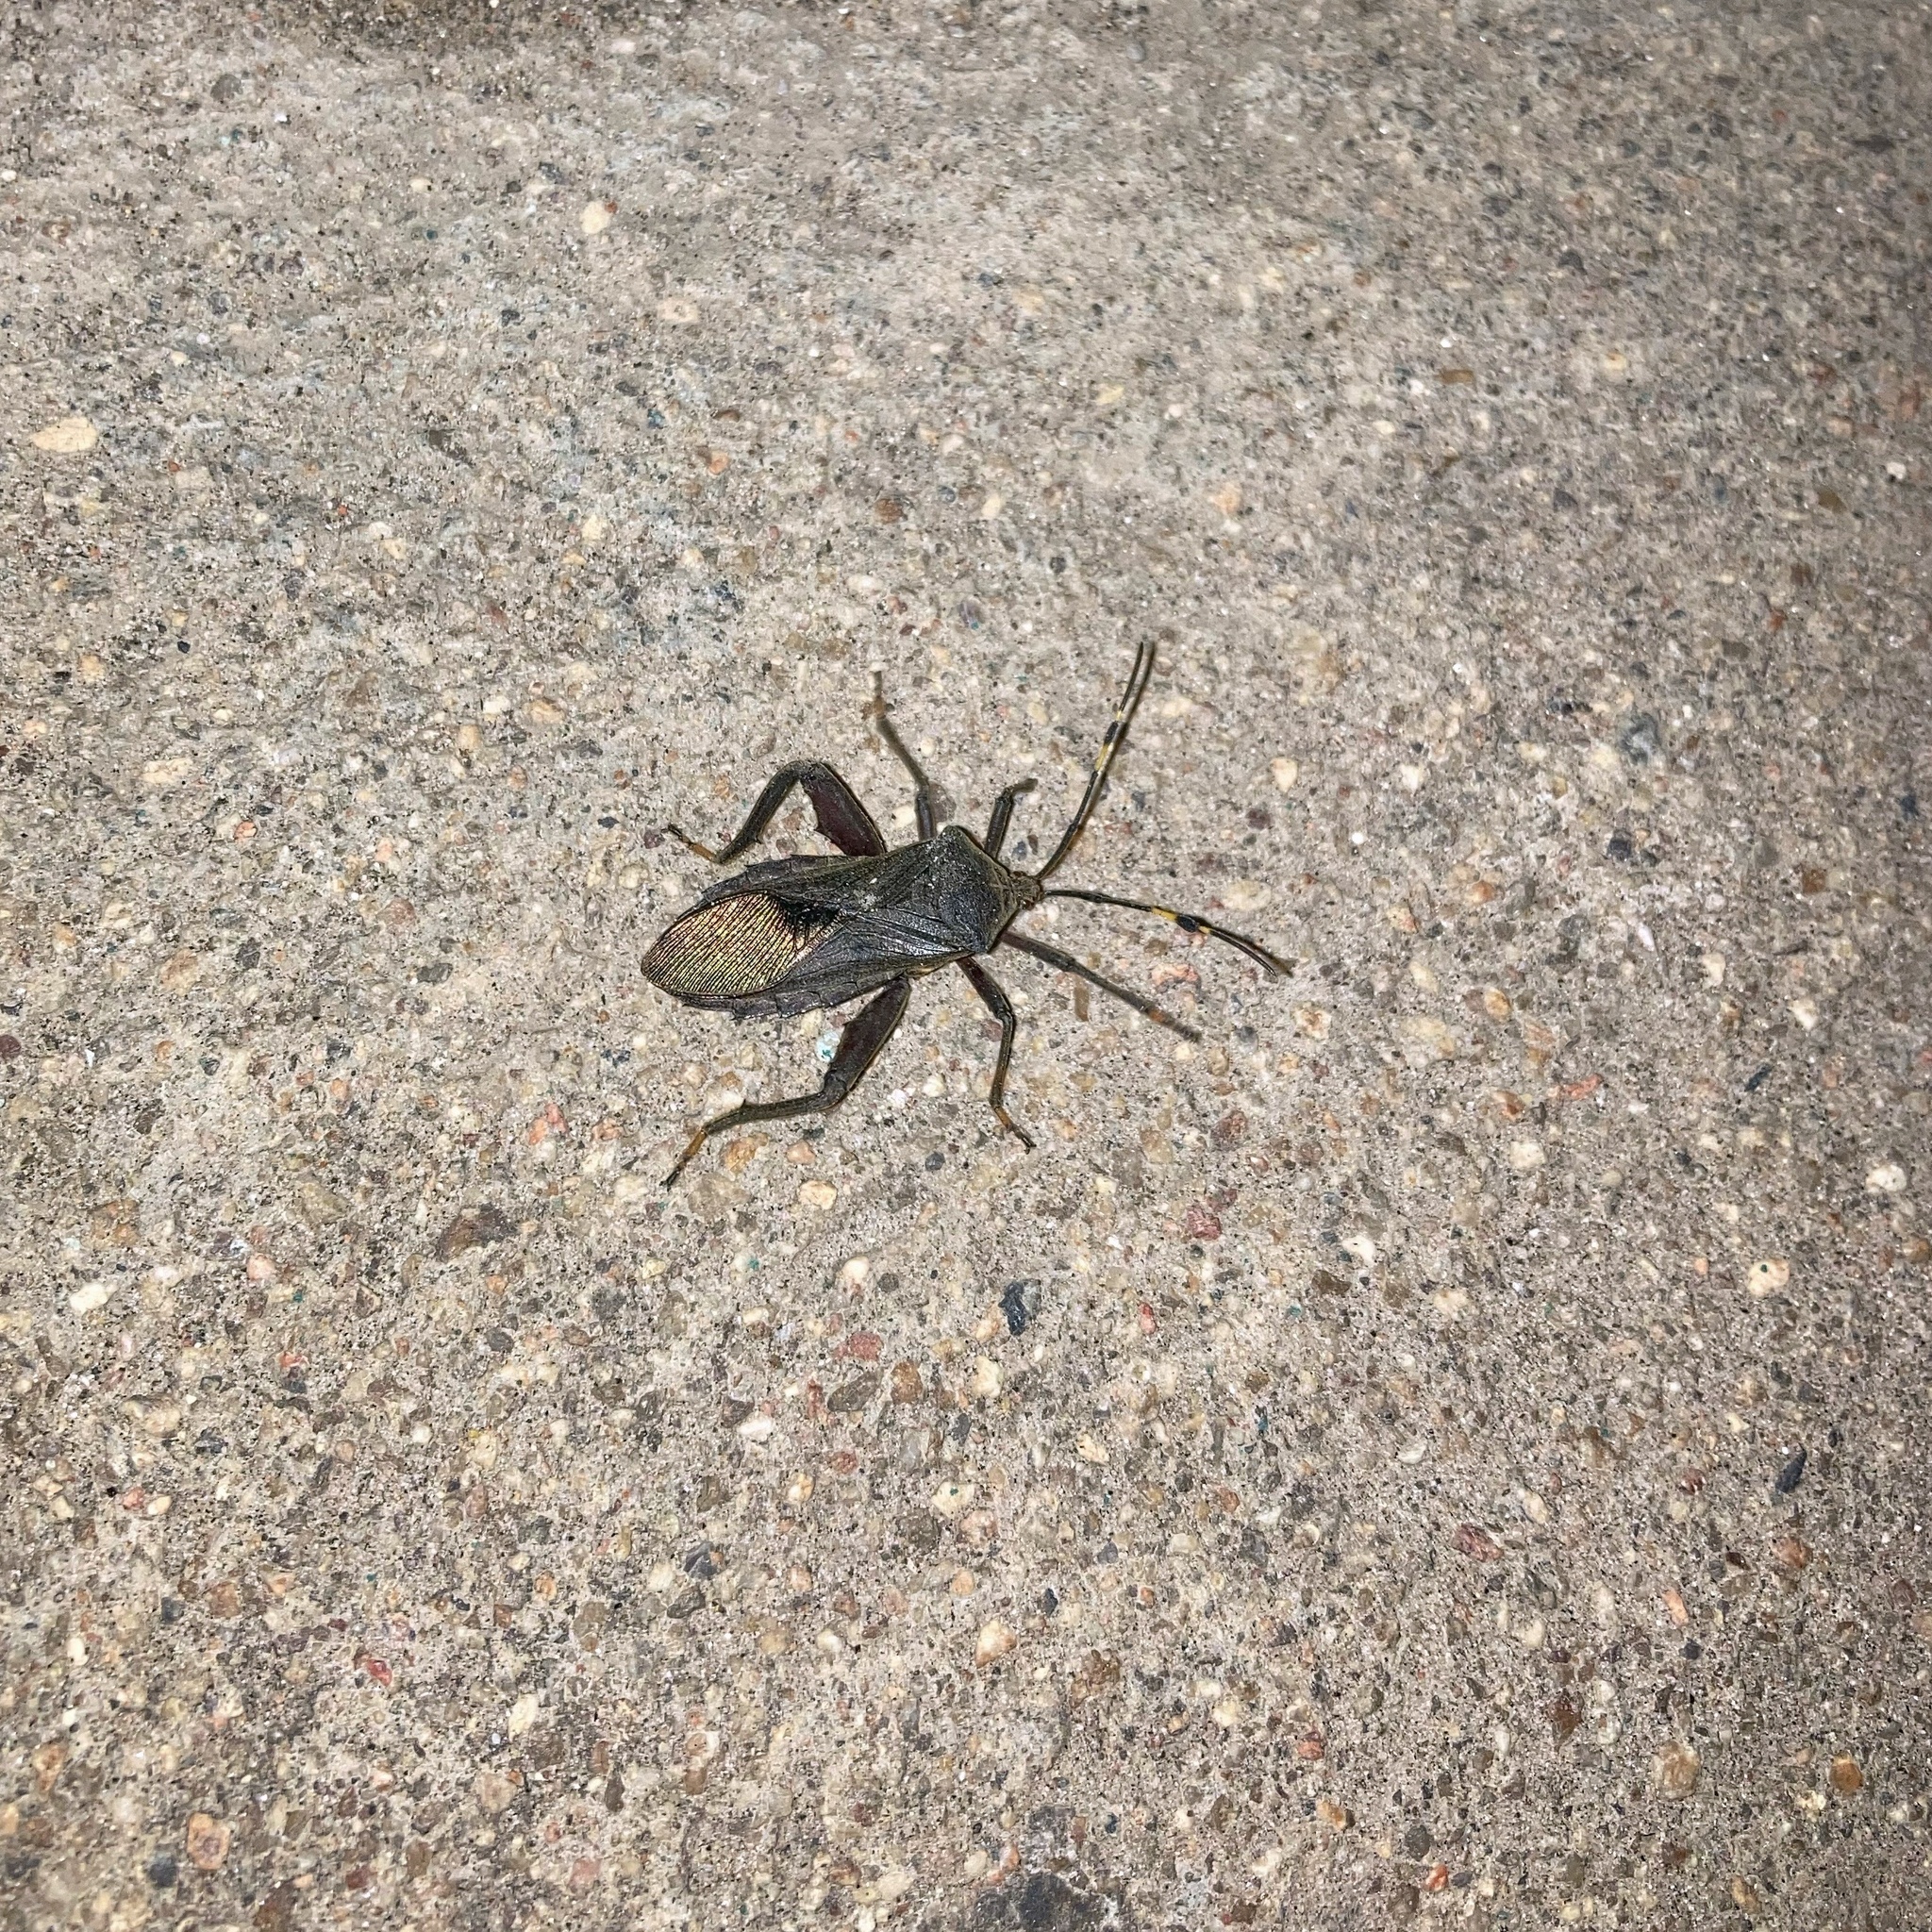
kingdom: Animalia
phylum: Arthropoda
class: Insecta
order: Hemiptera
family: Coreidae
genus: Pachylis
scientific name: Pachylis laticornis
